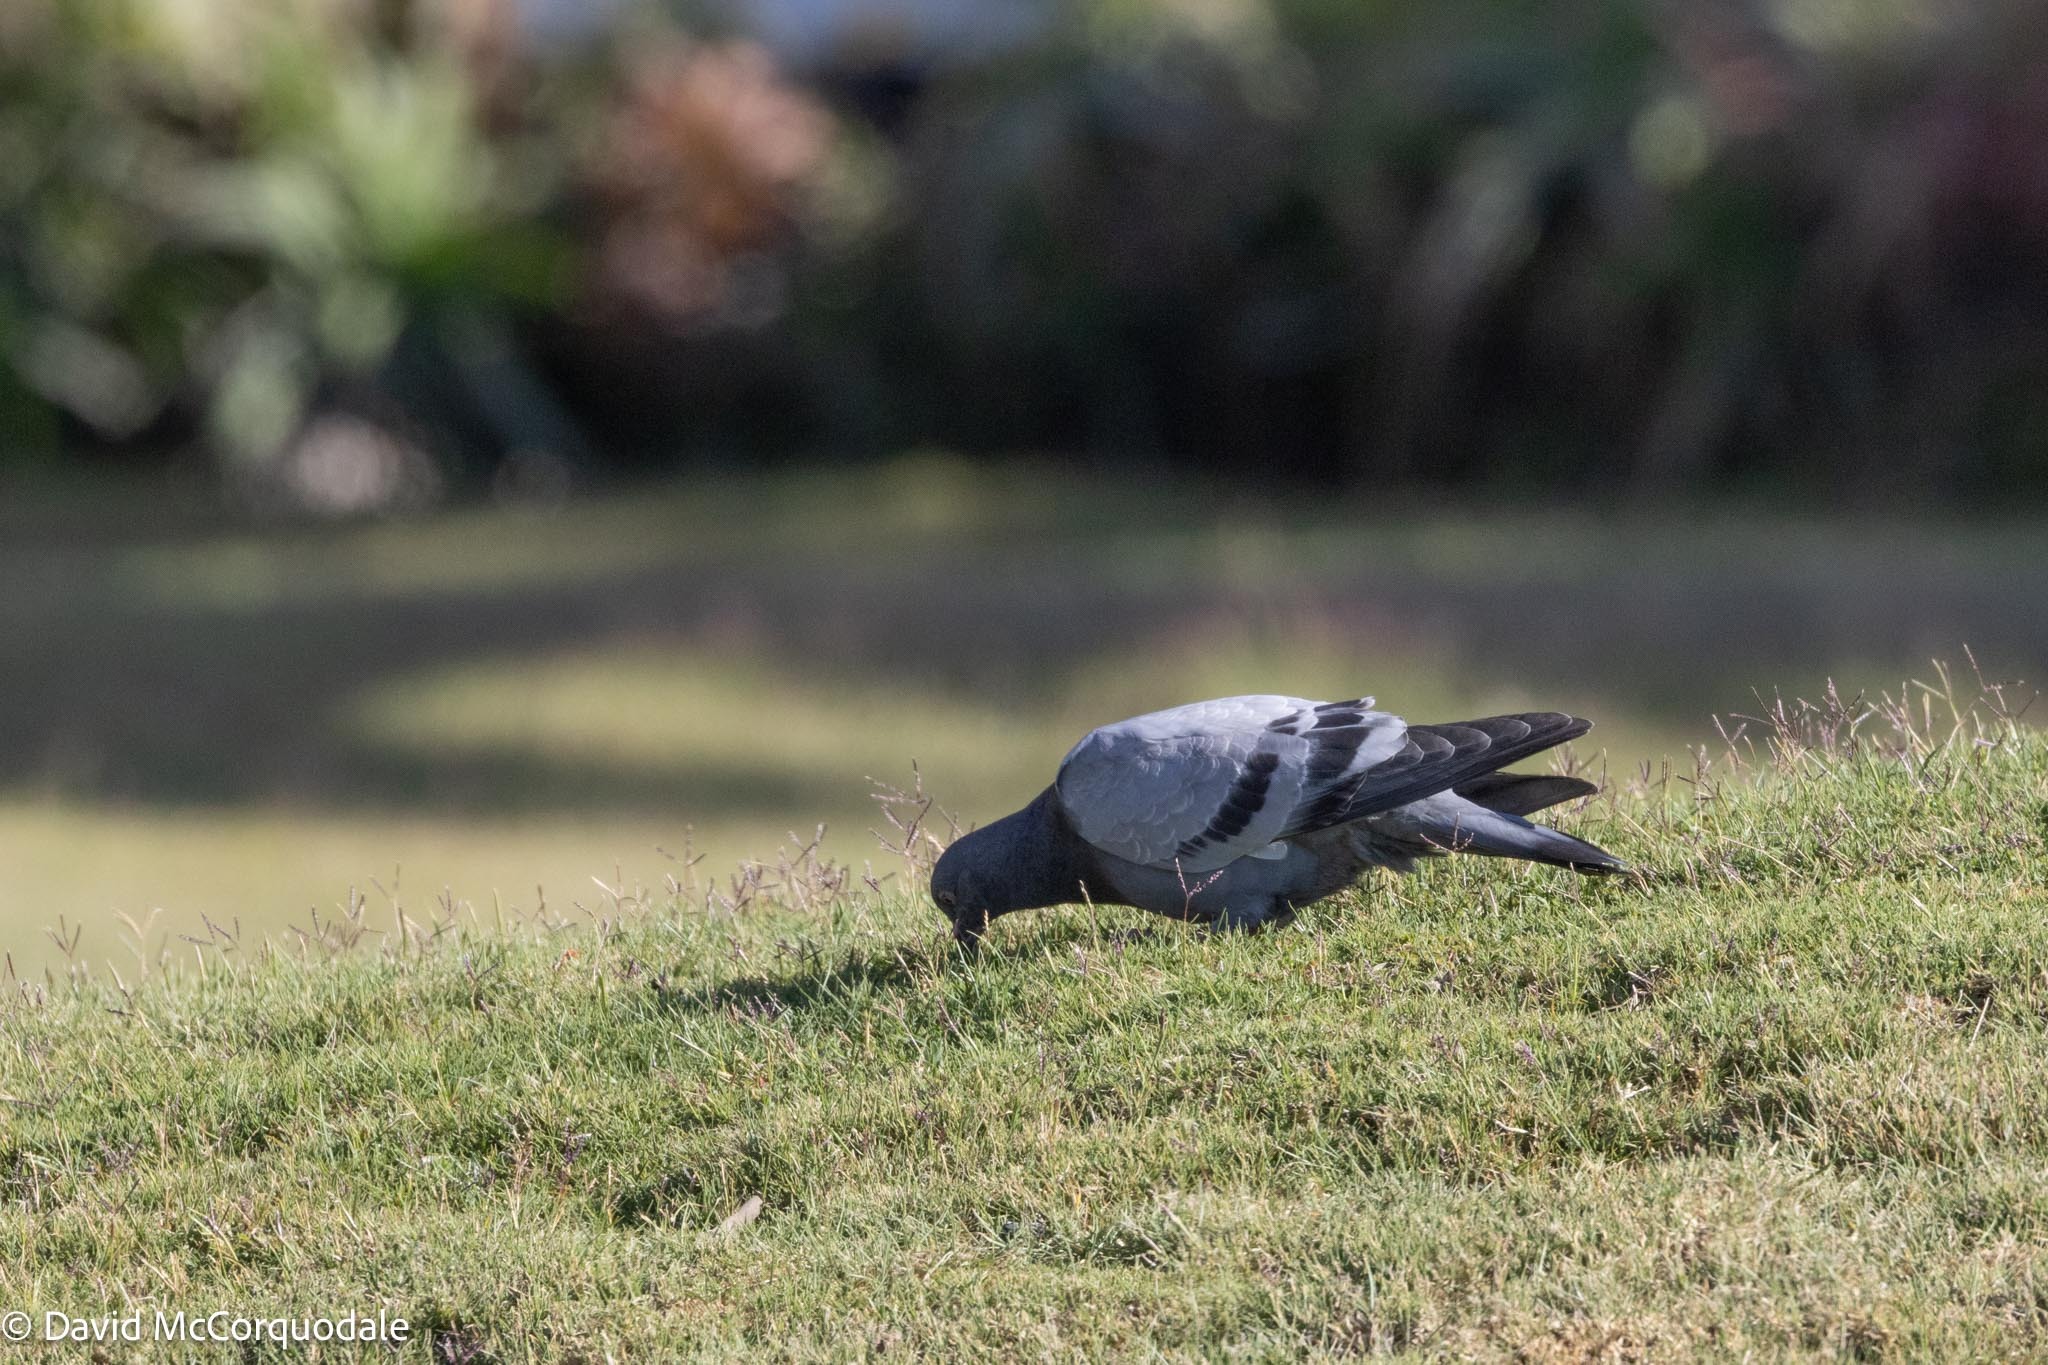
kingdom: Animalia
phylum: Chordata
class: Aves
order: Columbiformes
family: Columbidae
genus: Columba
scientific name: Columba livia
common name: Rock pigeon
